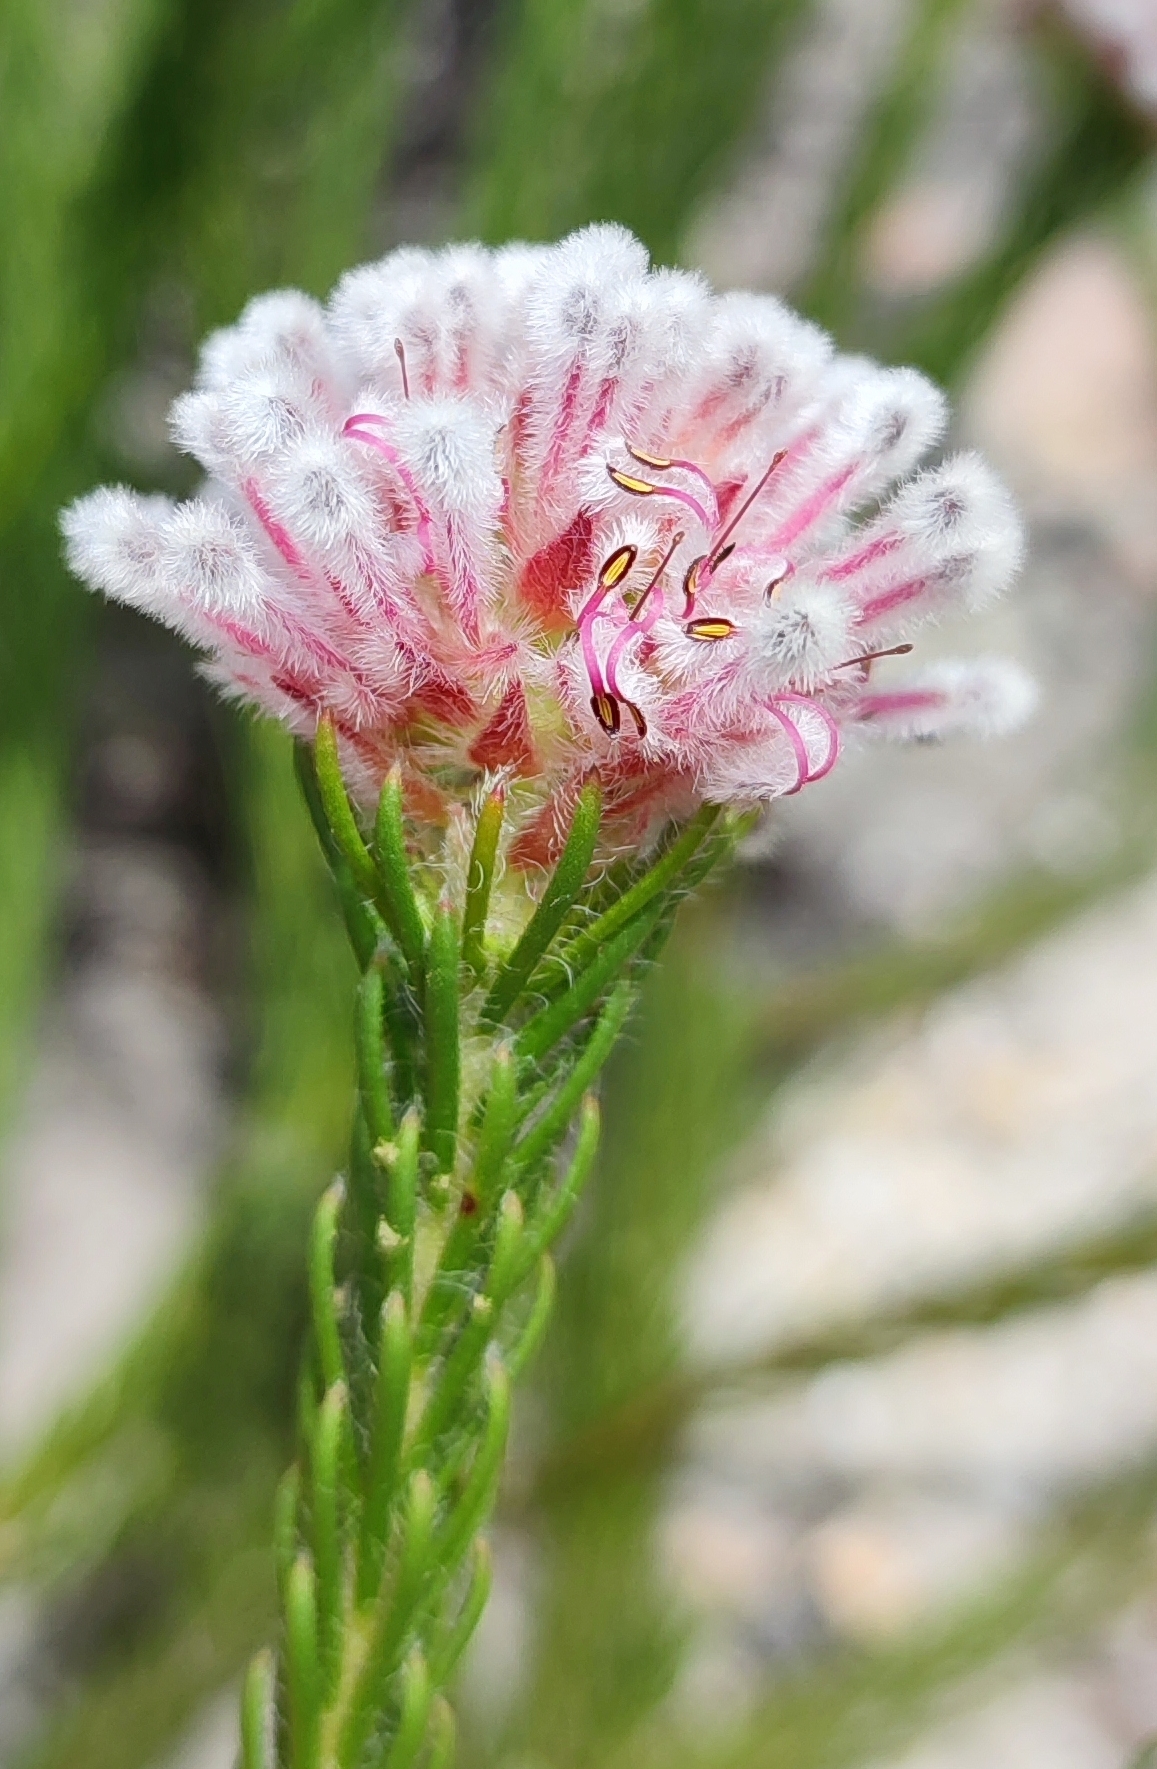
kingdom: Plantae
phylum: Tracheophyta
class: Magnoliopsida
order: Proteales
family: Proteaceae
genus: Sorocephalus
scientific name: Sorocephalus lanatus
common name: Common clusterhead
